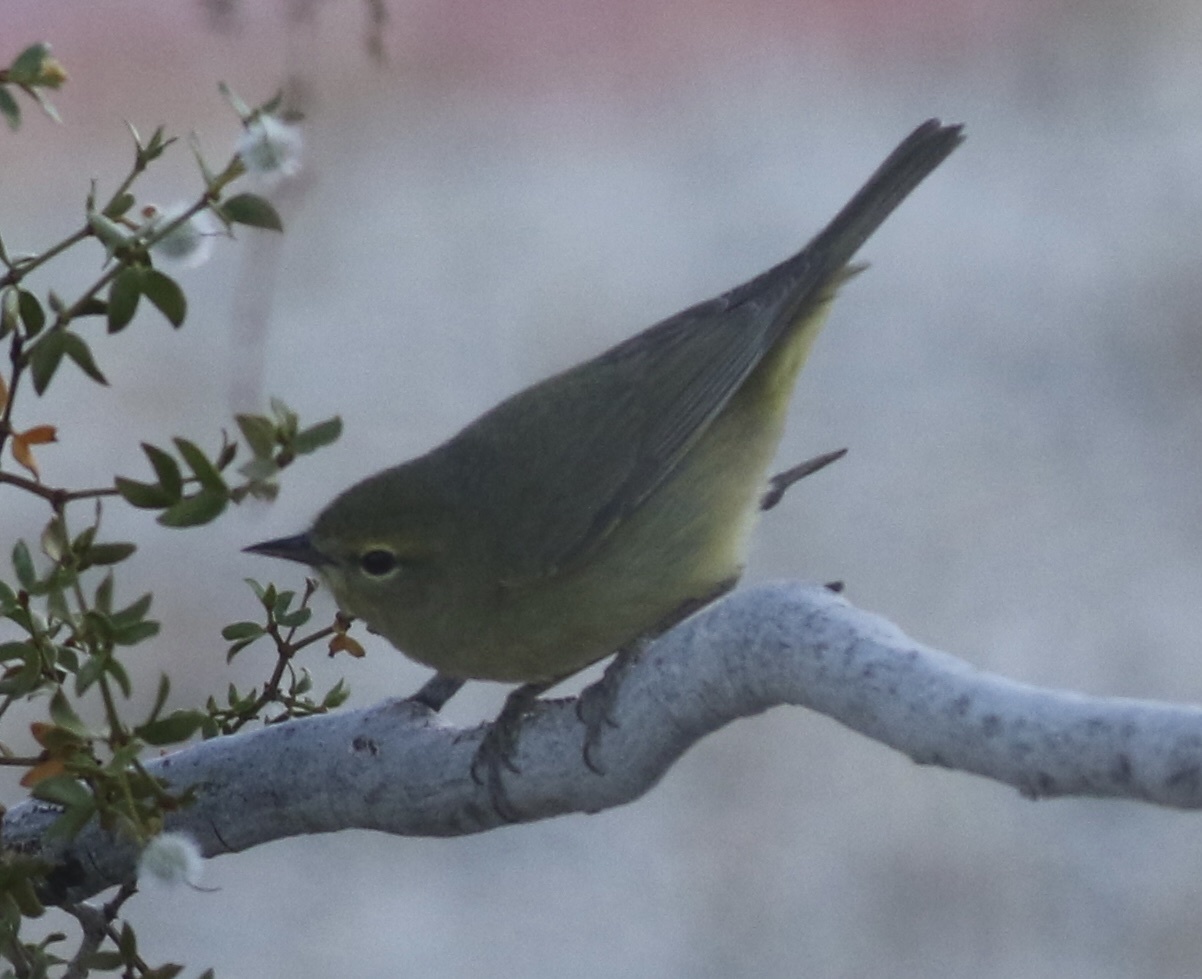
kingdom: Animalia
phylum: Chordata
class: Aves
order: Passeriformes
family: Parulidae
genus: Leiothlypis
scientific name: Leiothlypis celata
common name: Orange-crowned warbler
